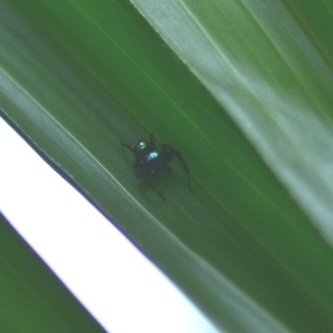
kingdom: Animalia
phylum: Arthropoda
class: Arachnida
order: Araneae
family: Salticidae
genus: Phintella
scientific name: Phintella vittata
